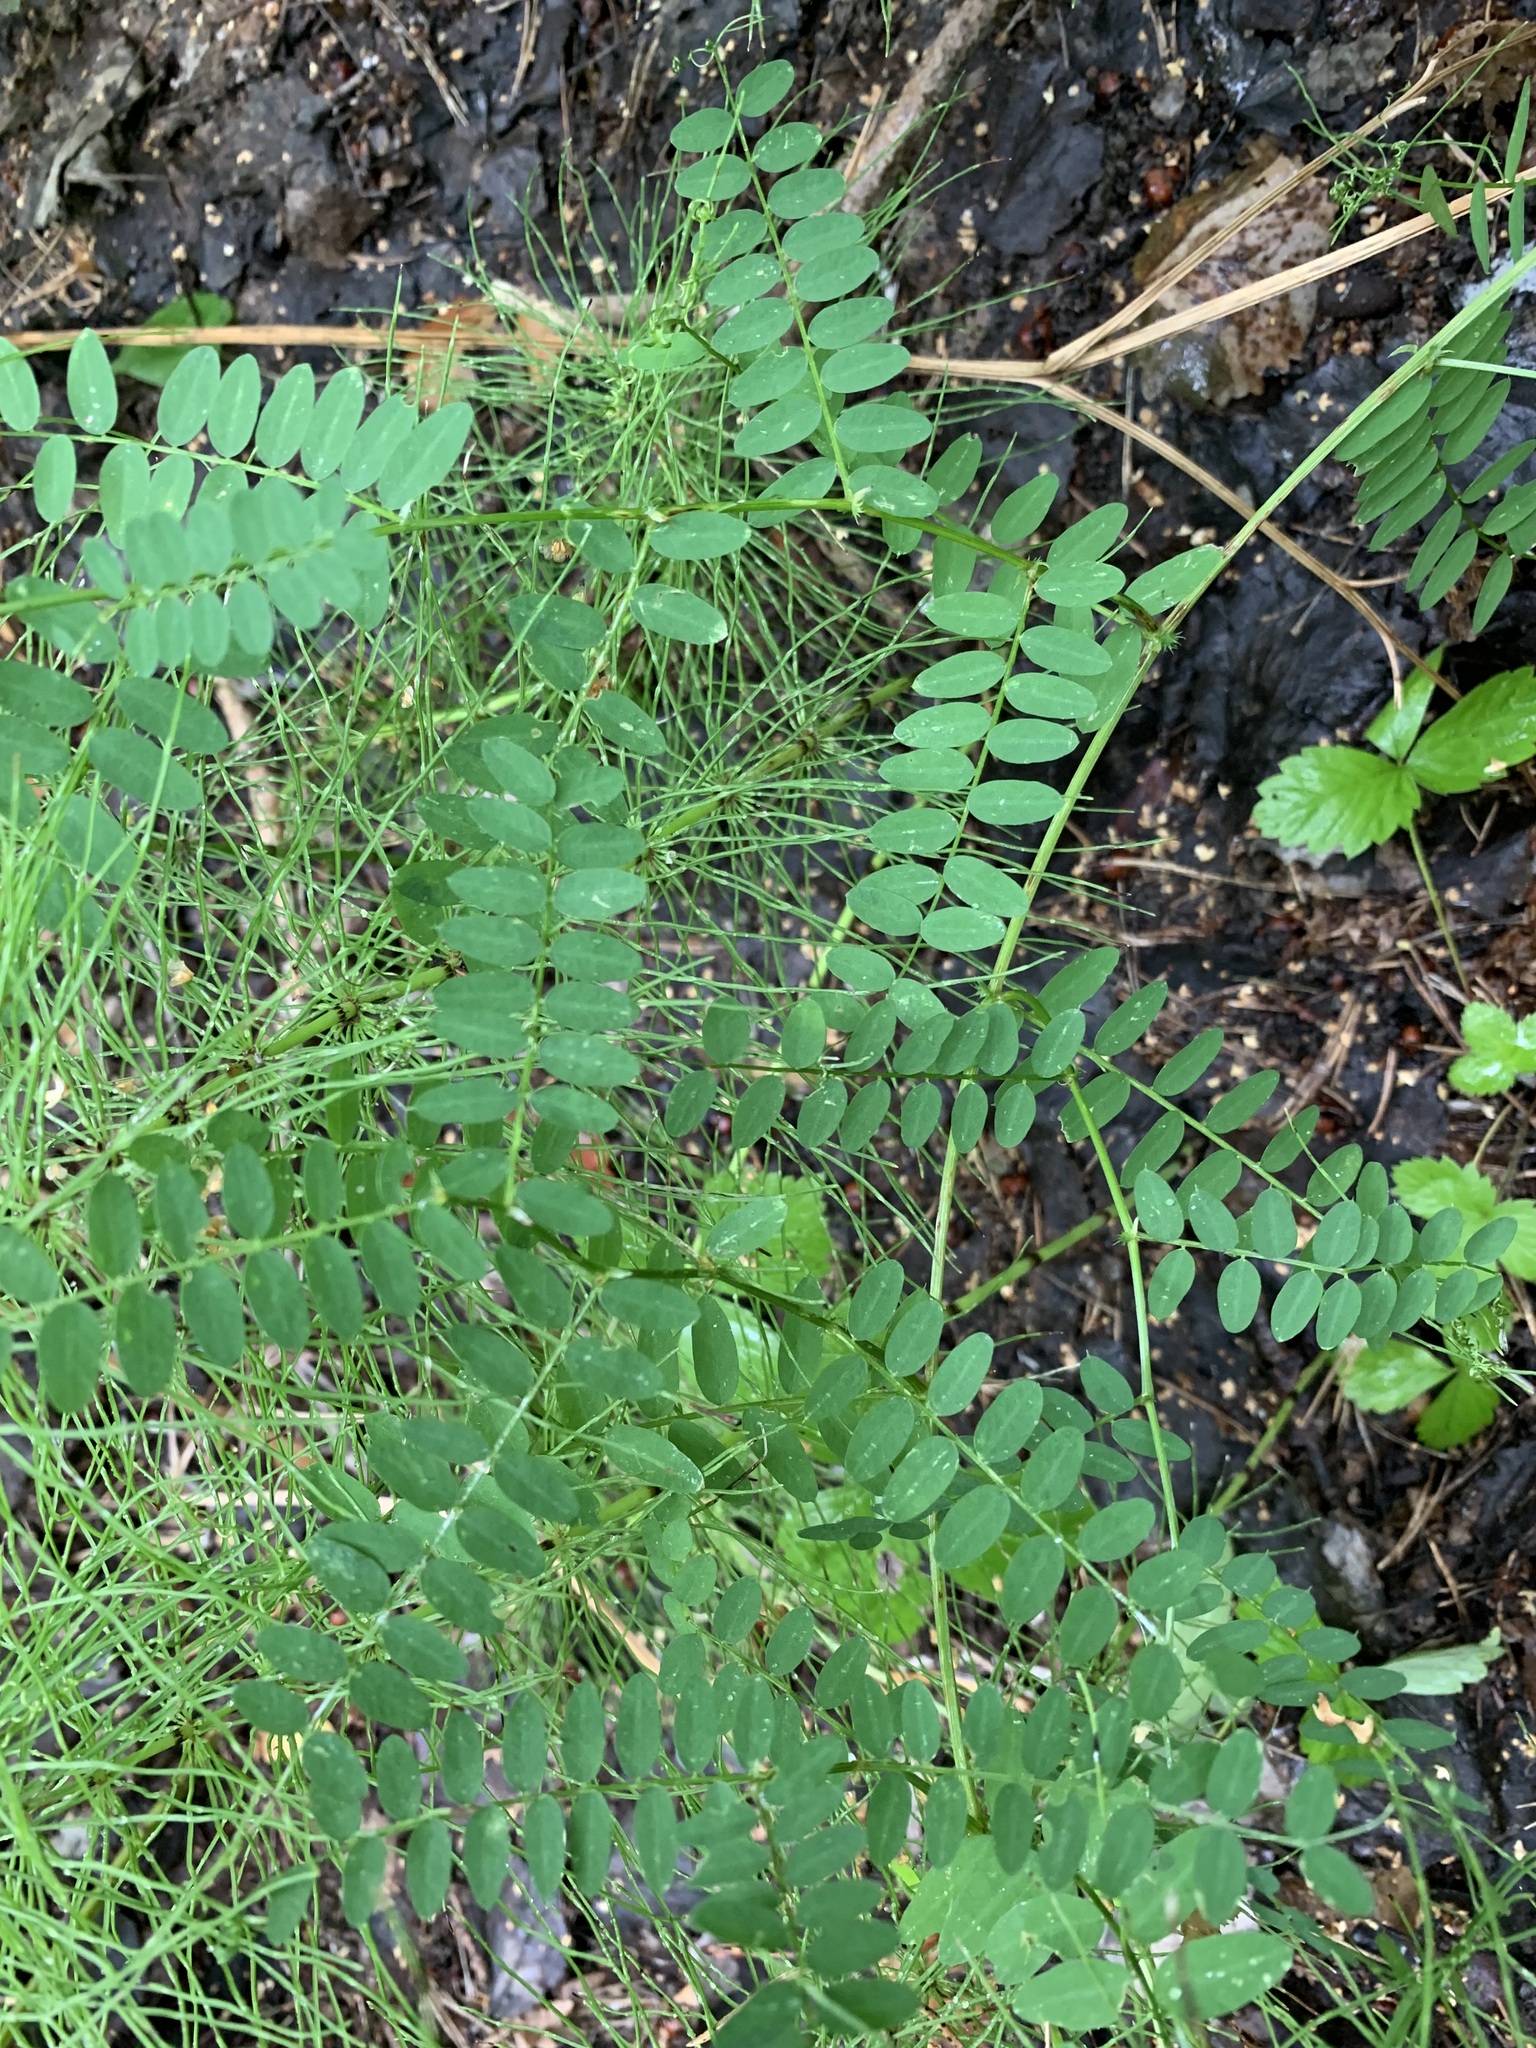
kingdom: Plantae
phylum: Tracheophyta
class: Magnoliopsida
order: Fabales
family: Fabaceae
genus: Vicia
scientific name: Vicia sylvatica
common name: Wood vetch
